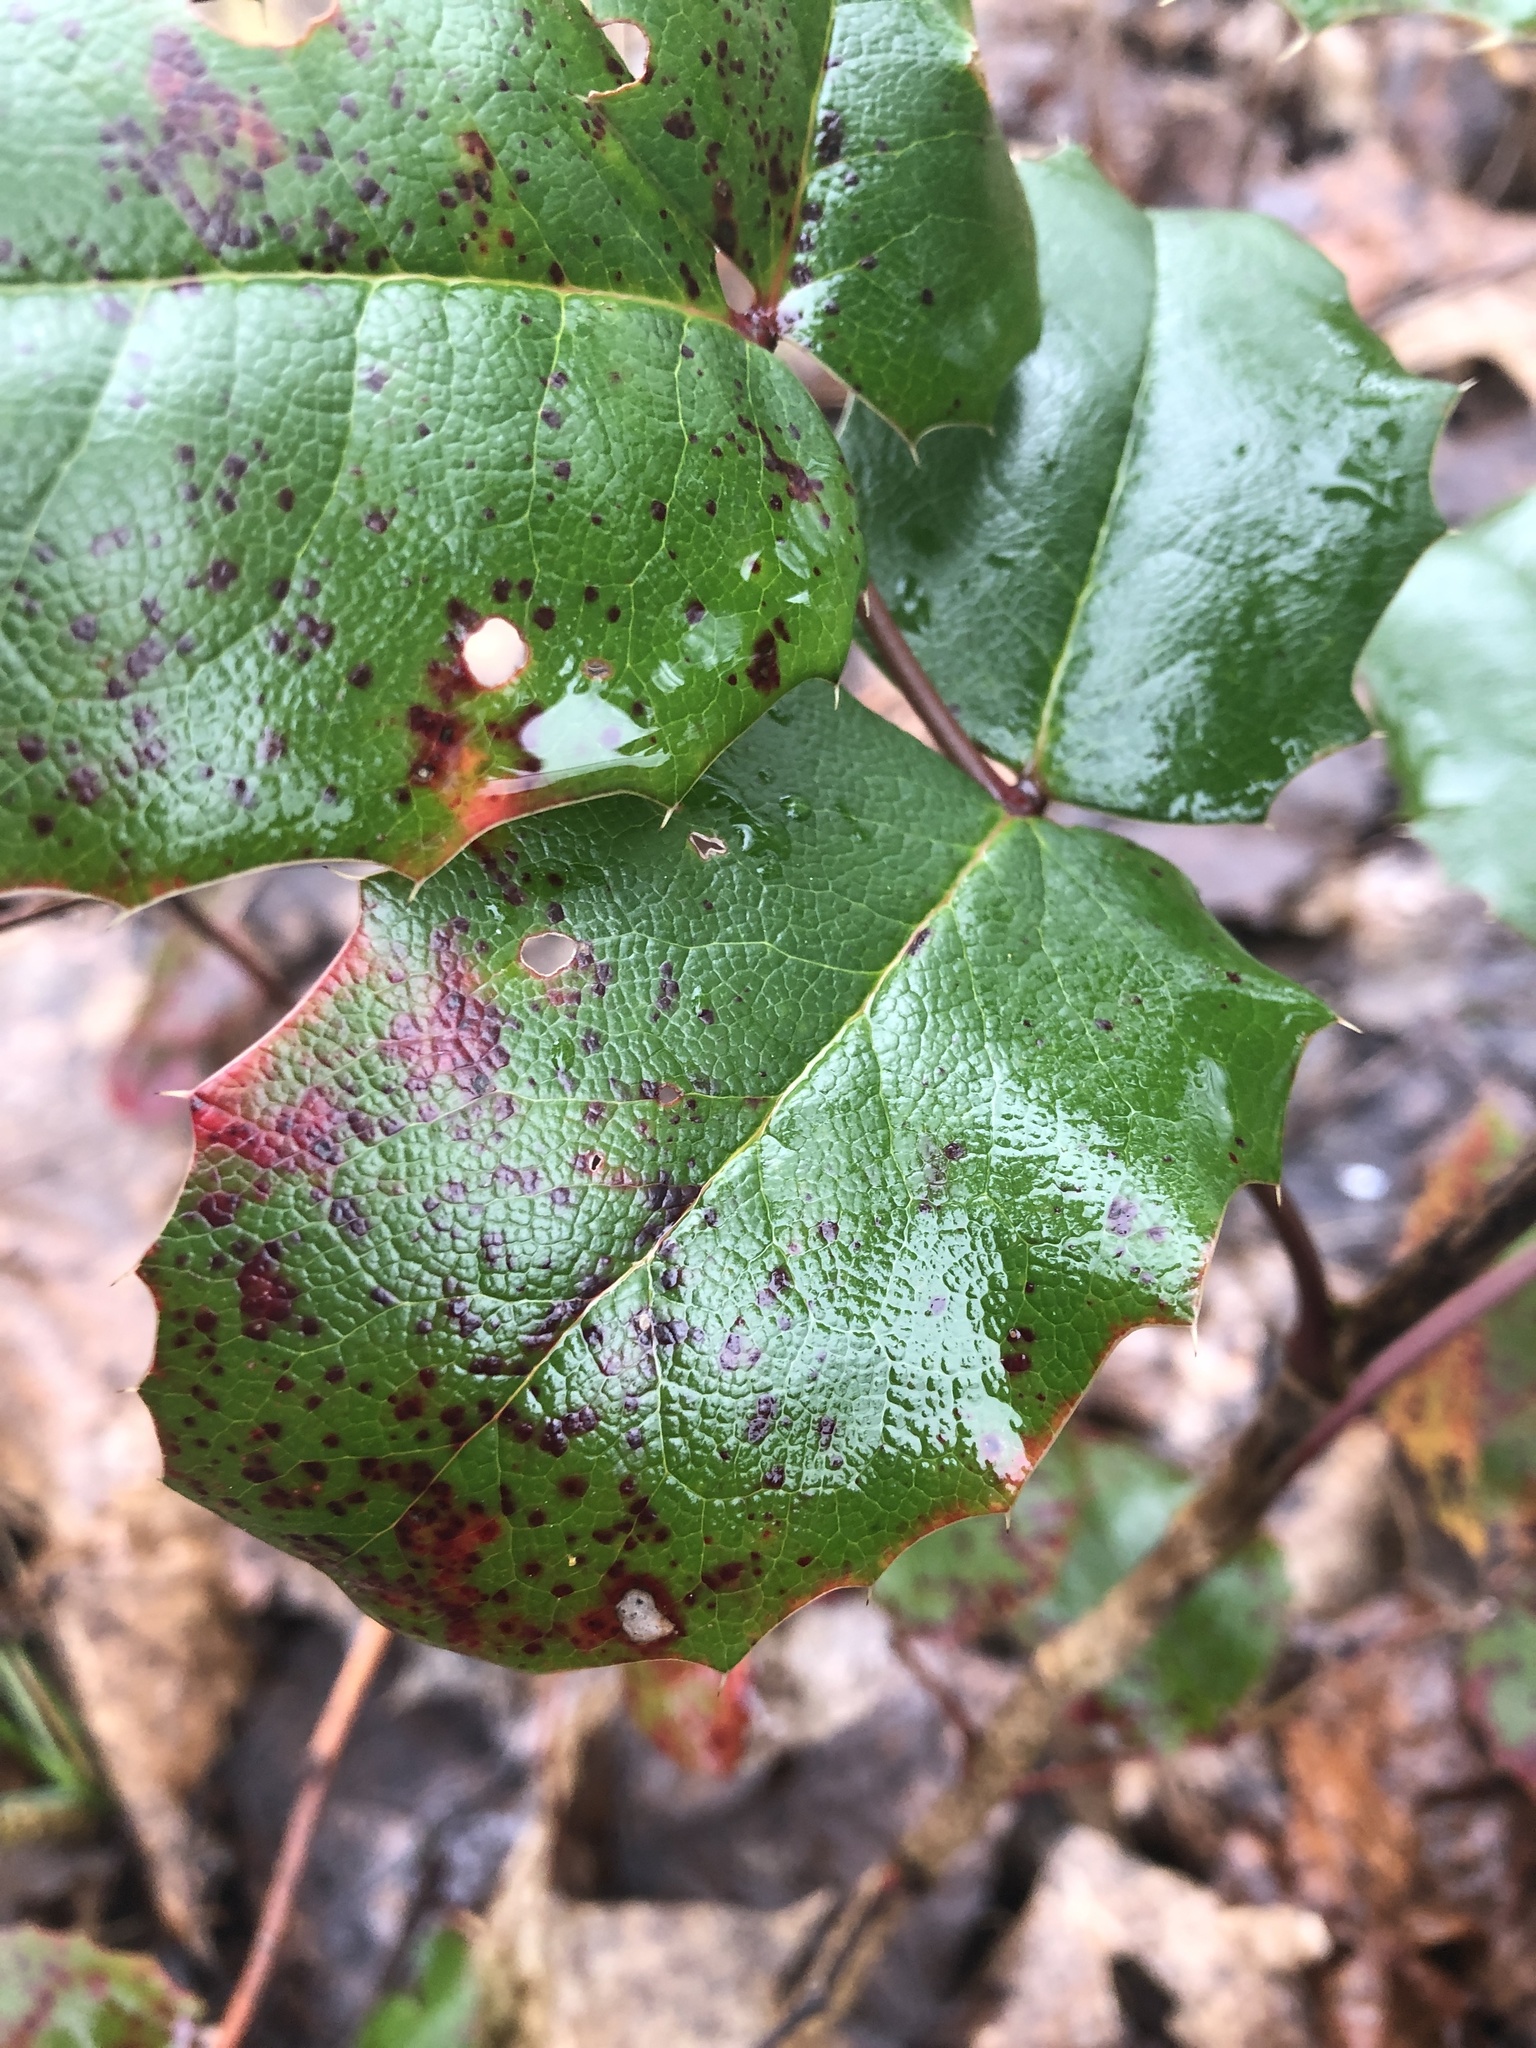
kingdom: Fungi
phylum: Basidiomycota
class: Pucciniomycetes
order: Pucciniales
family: Pucciniaceae
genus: Cumminsiella
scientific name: Cumminsiella mirabilissima
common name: Mahonia rust
